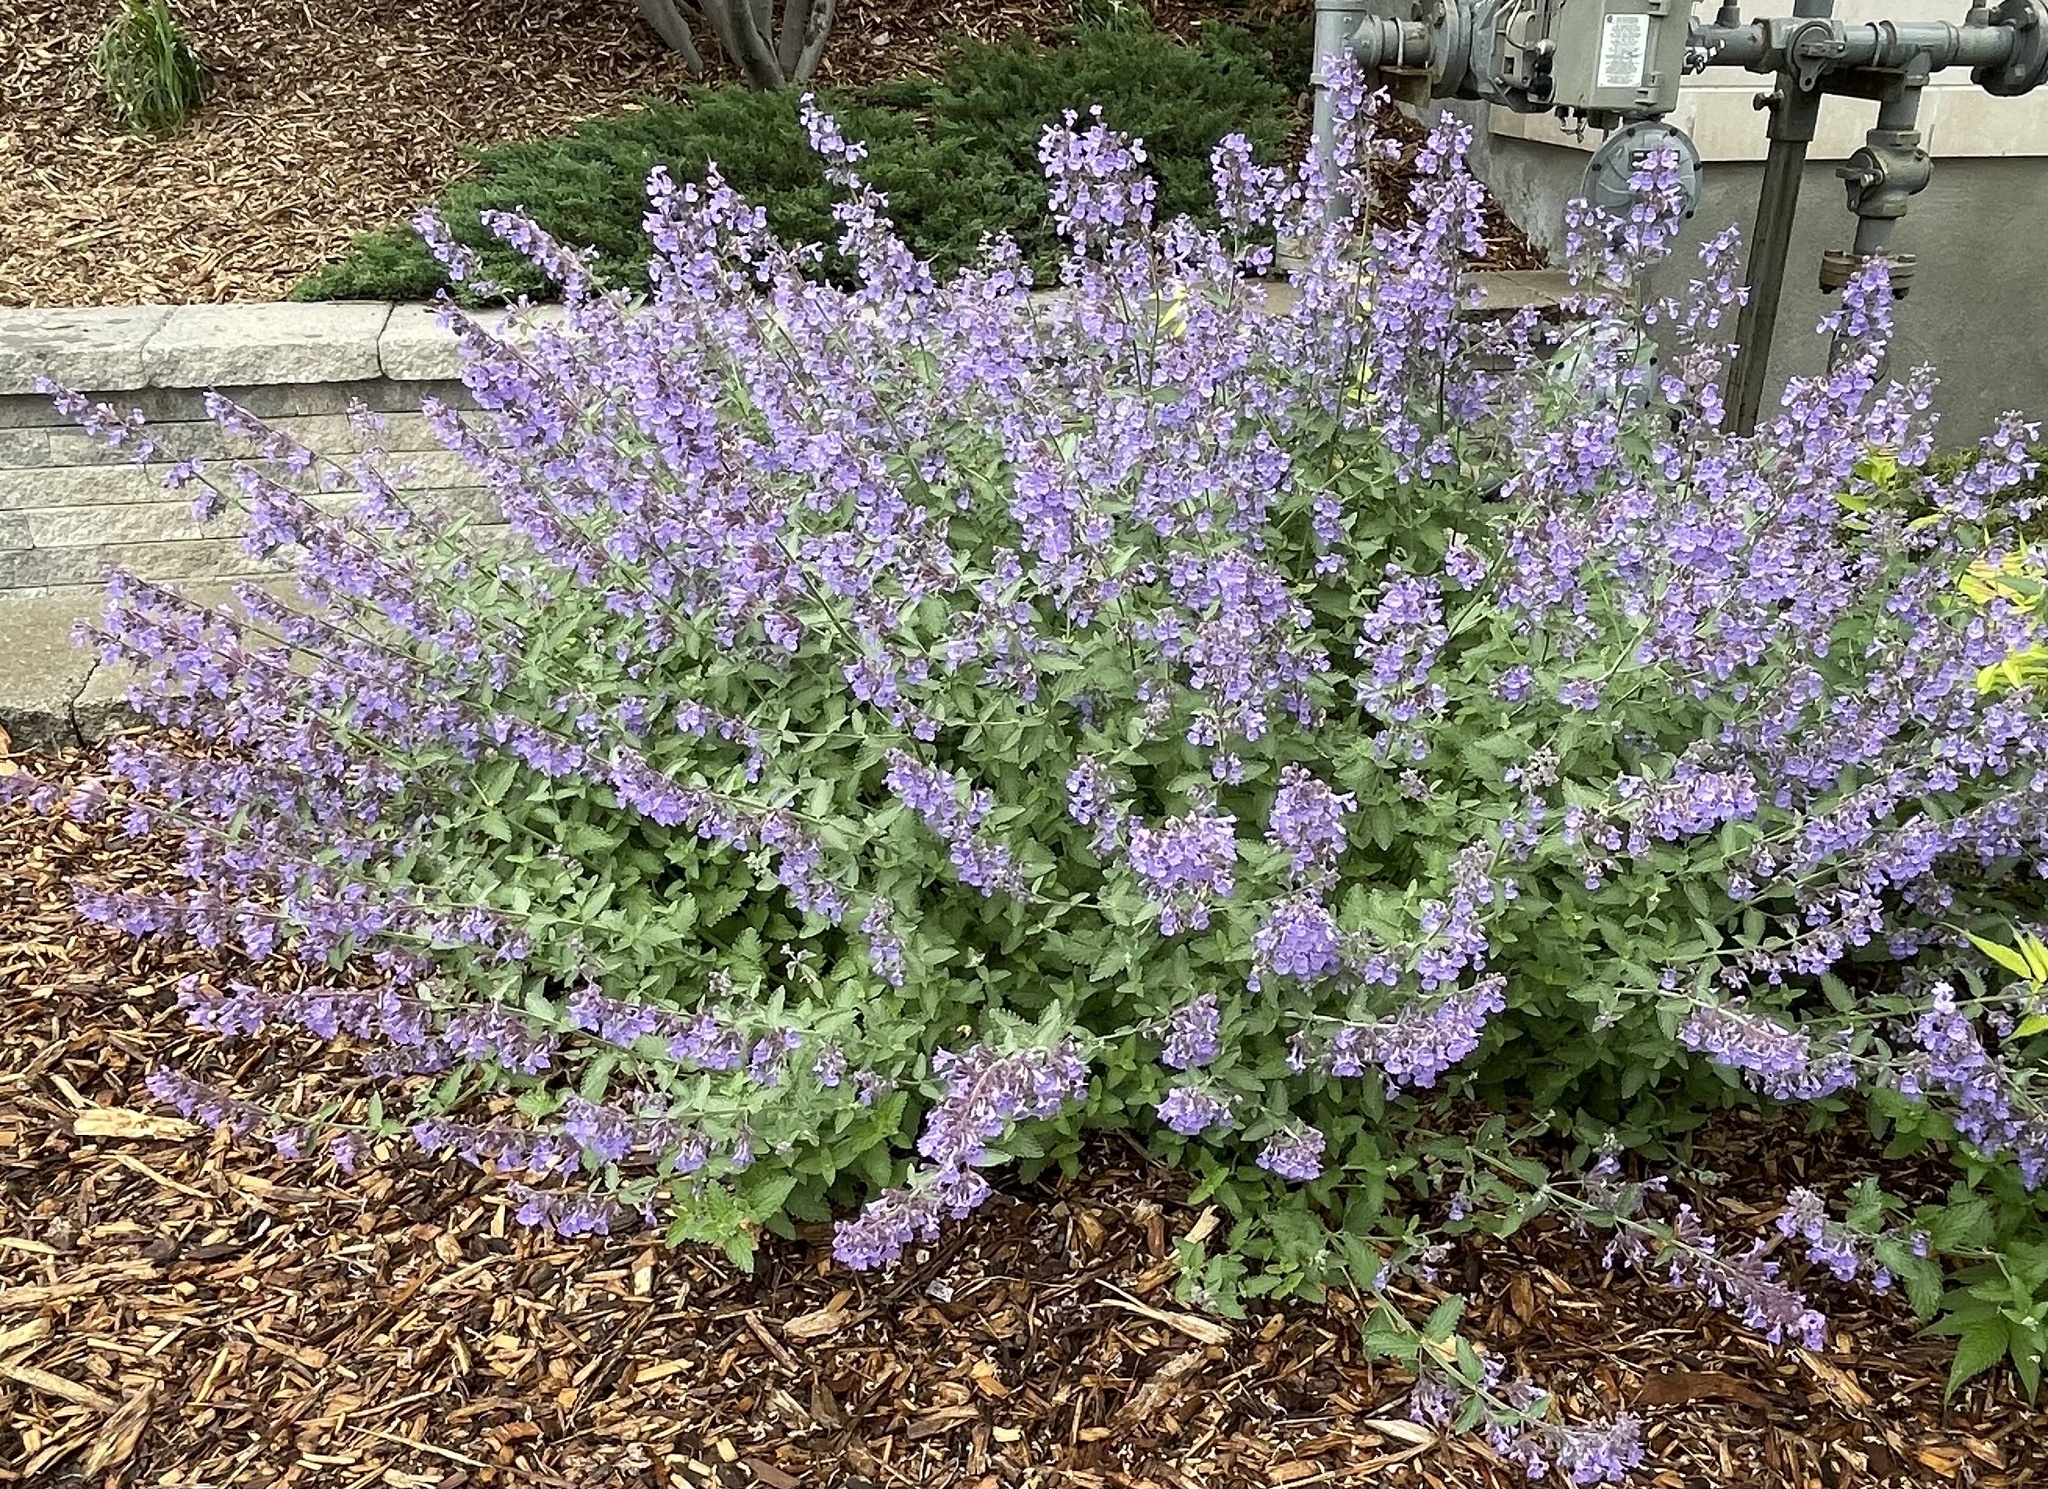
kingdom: Plantae
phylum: Tracheophyta
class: Magnoliopsida
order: Lamiales
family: Lamiaceae
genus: Glechoma
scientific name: Glechoma hederacea
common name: Ground ivy
